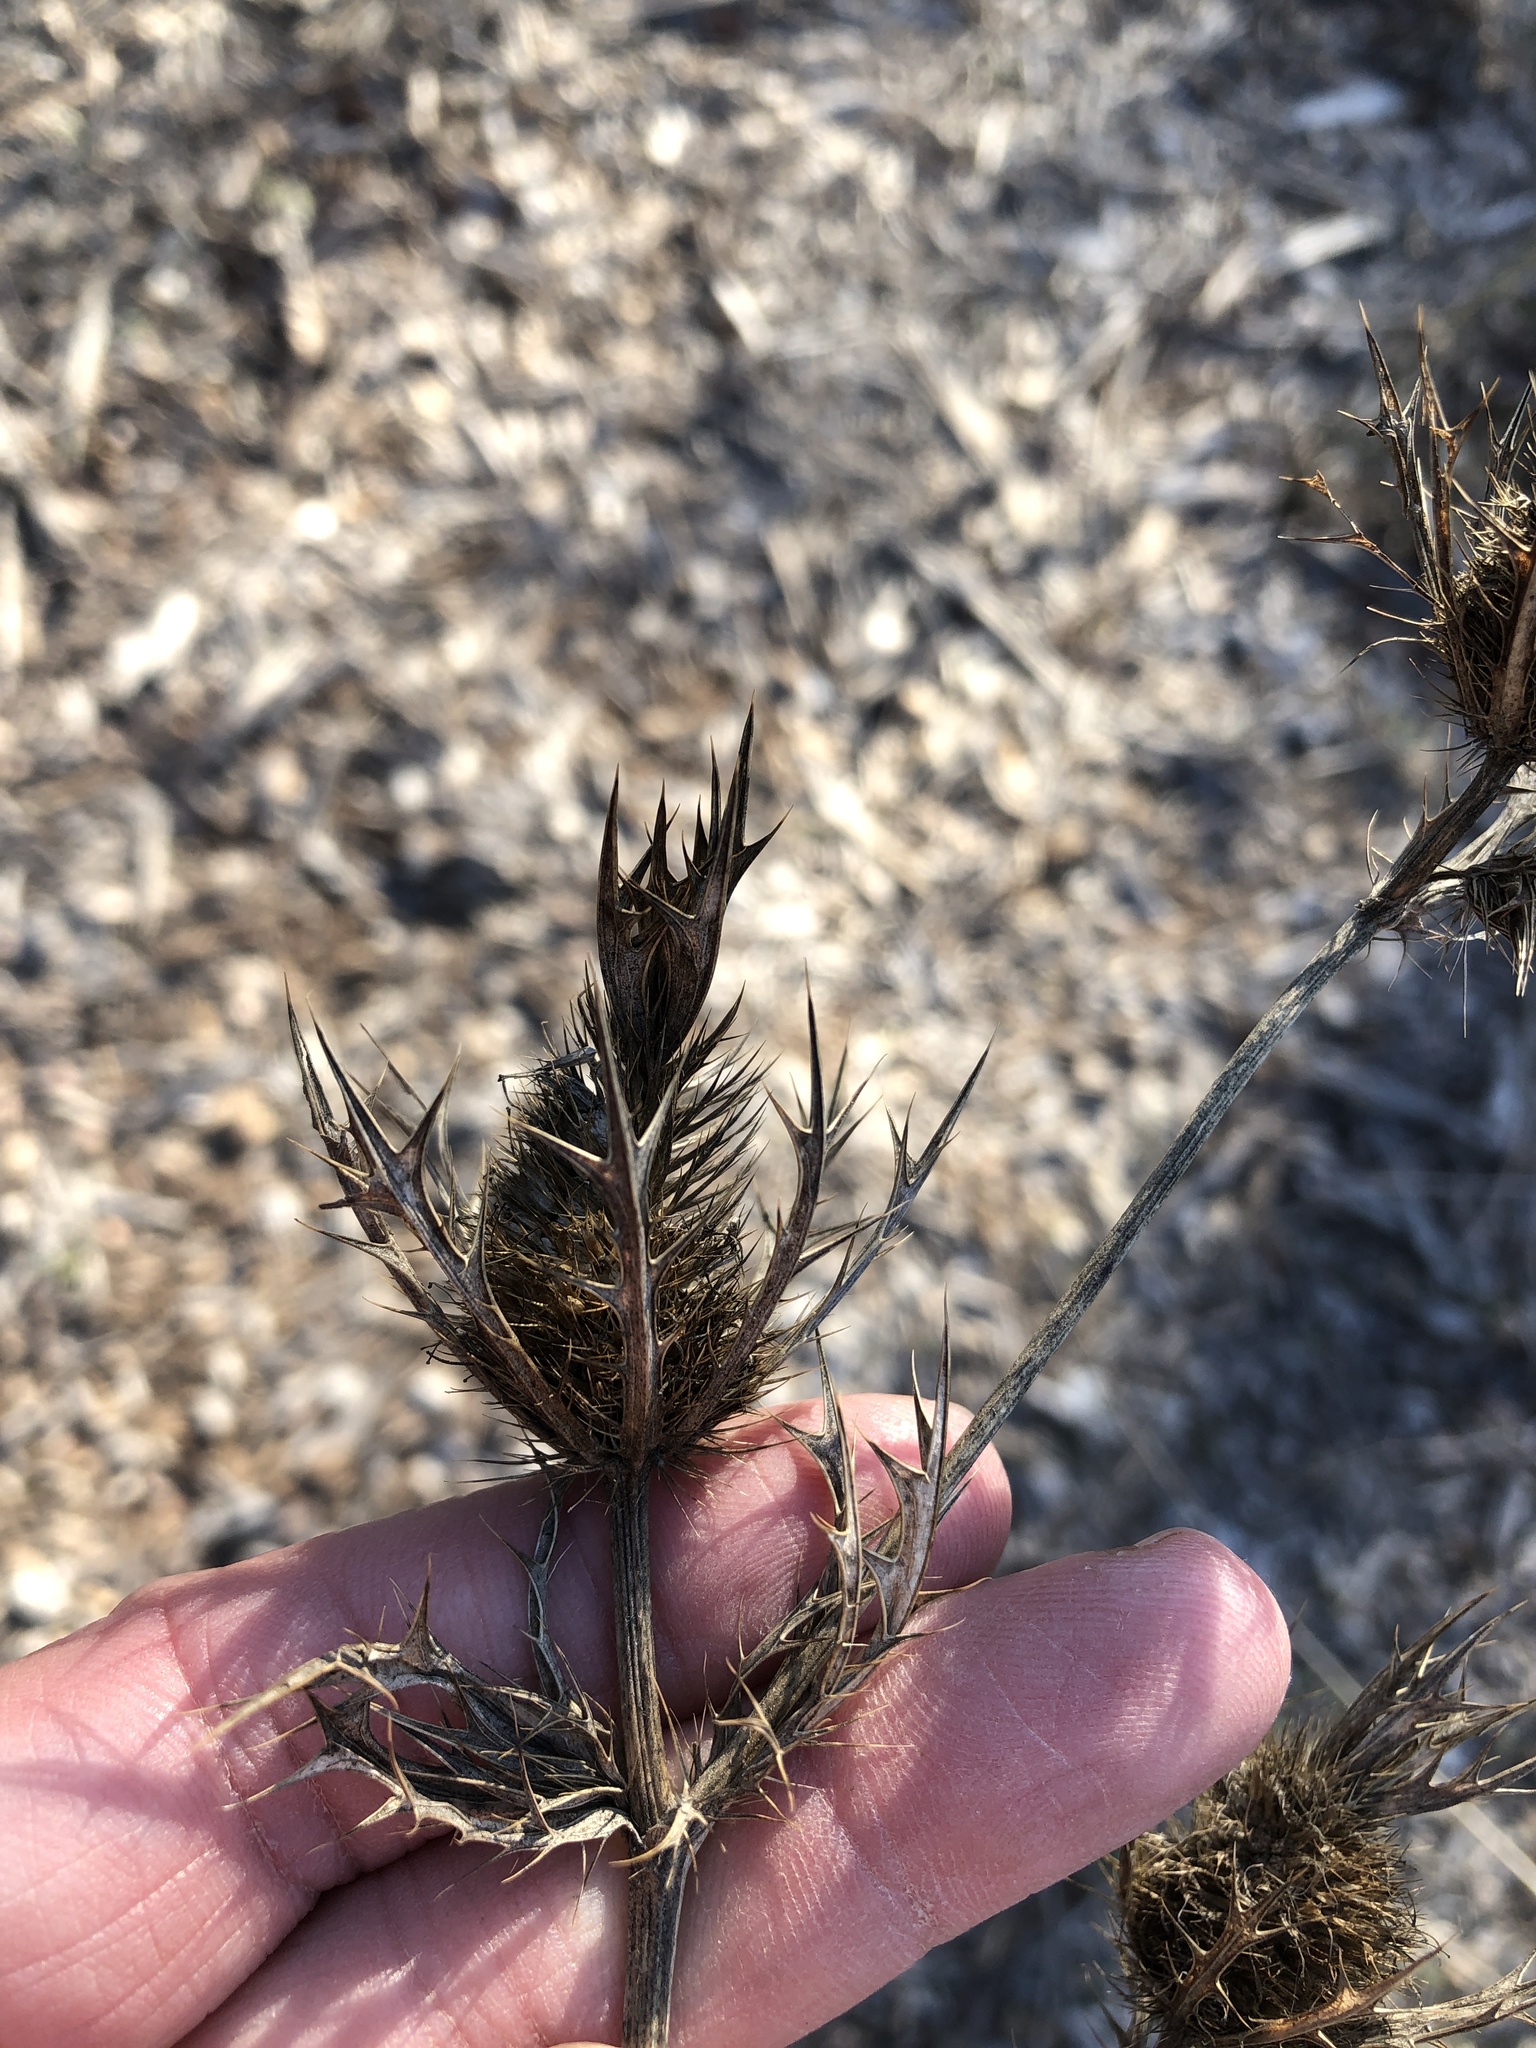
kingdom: Plantae
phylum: Tracheophyta
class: Magnoliopsida
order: Apiales
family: Apiaceae
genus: Eryngium
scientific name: Eryngium leavenworthii
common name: Leavenworth's eryngo
